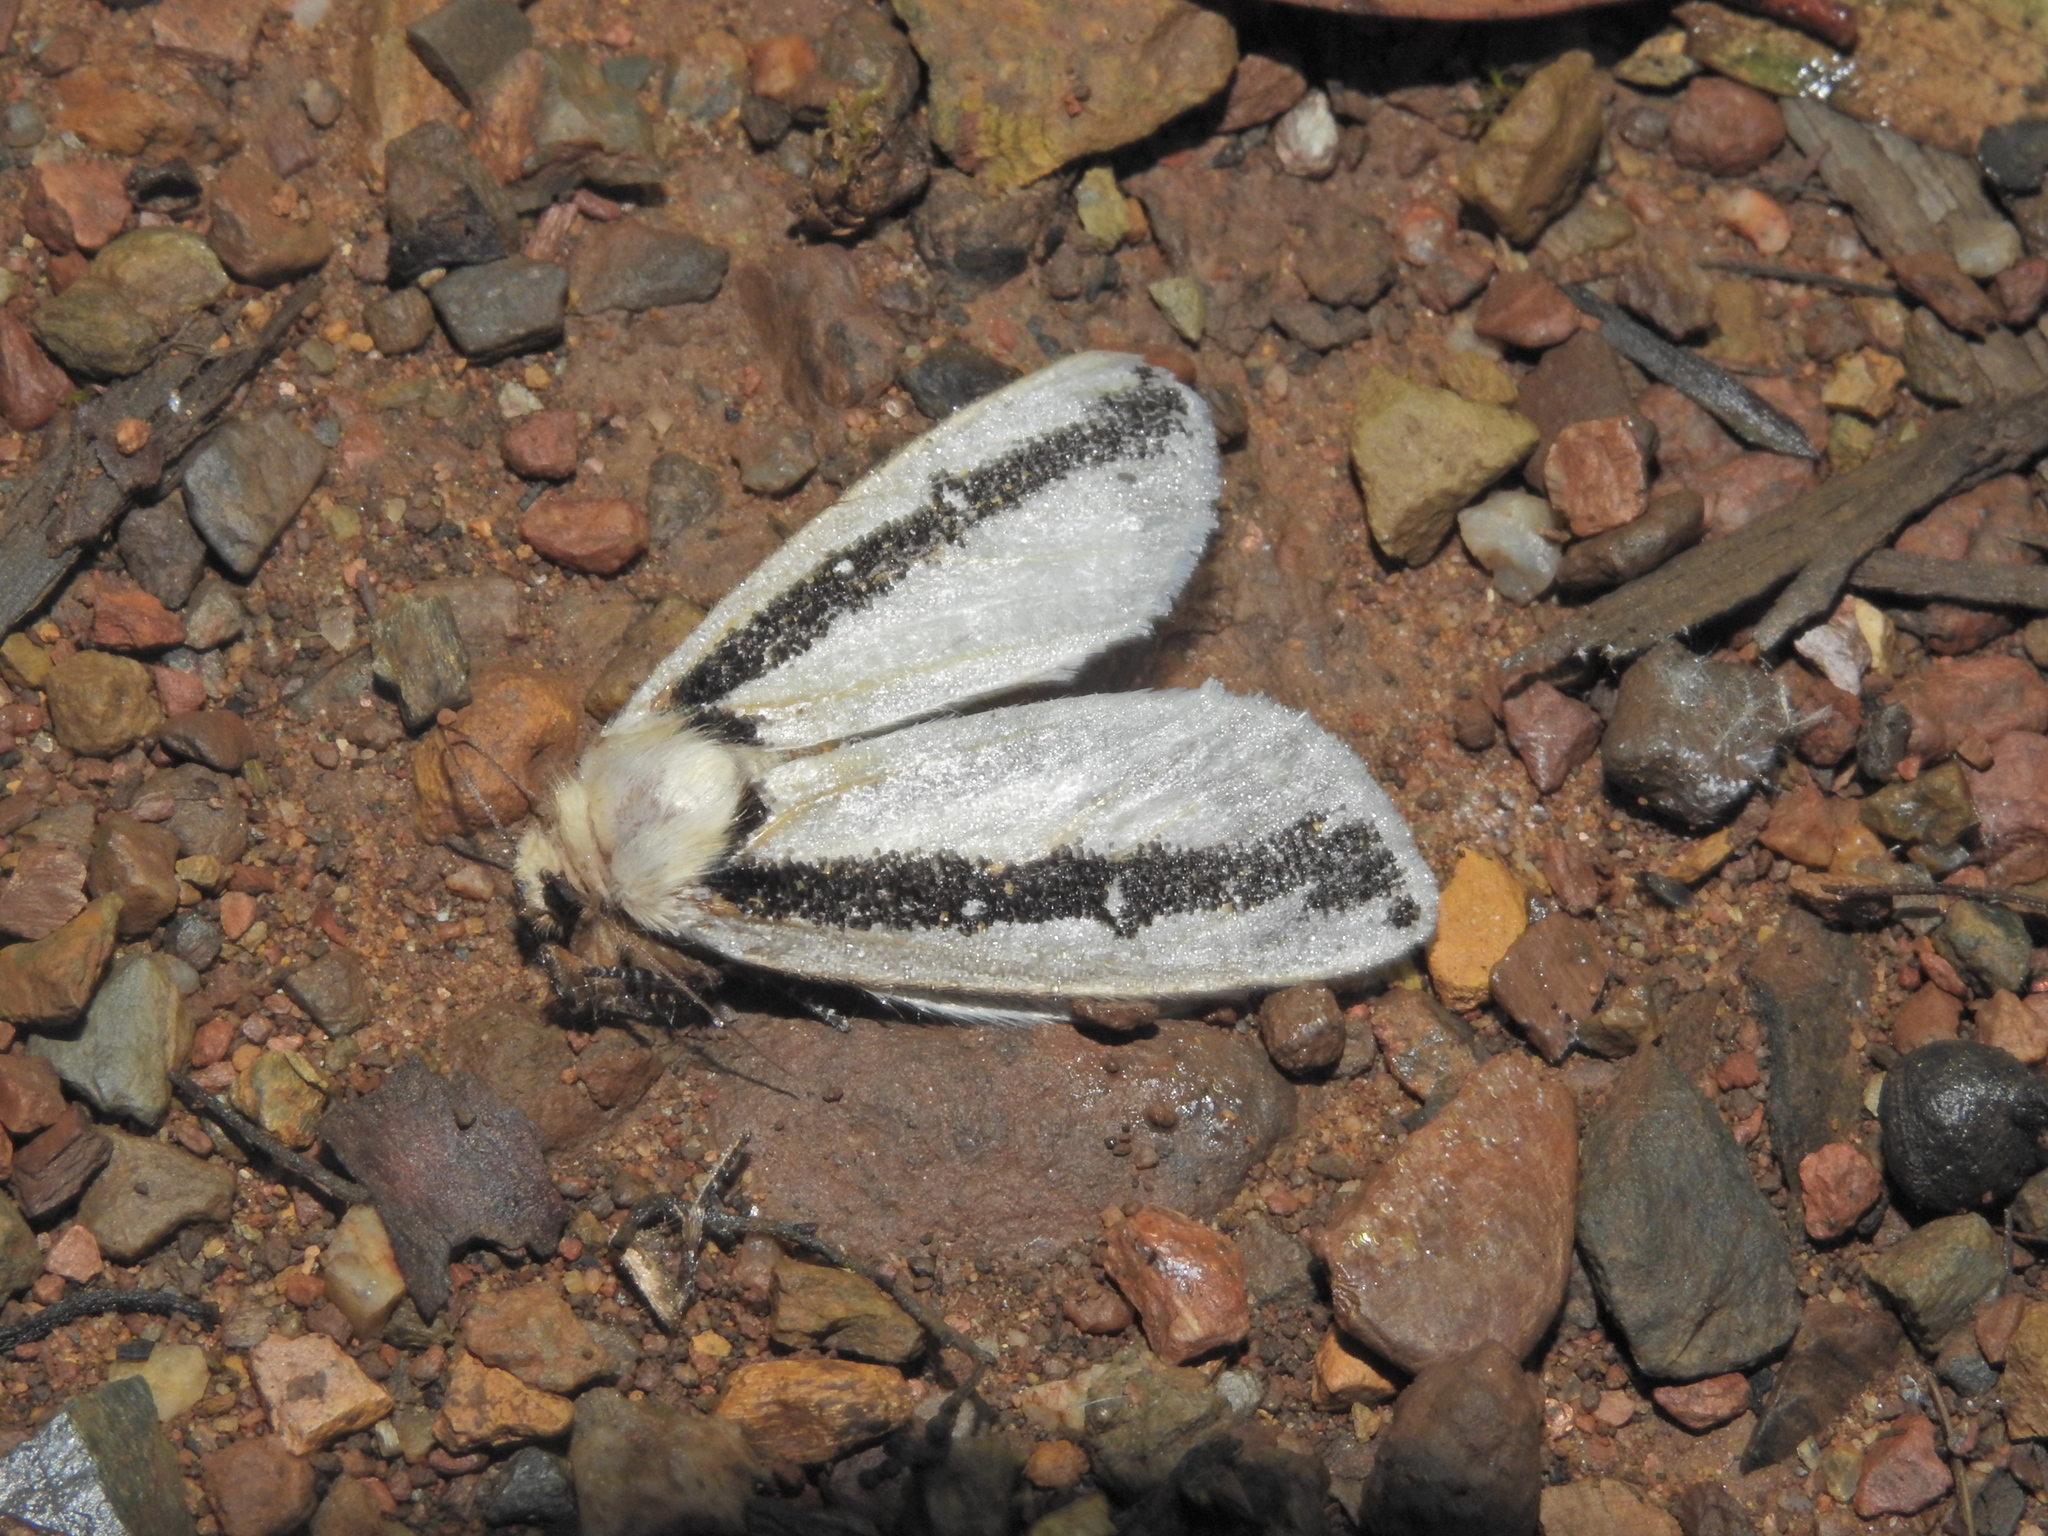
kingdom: Animalia
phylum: Arthropoda
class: Insecta
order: Lepidoptera
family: Oenosandridae
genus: Oenosandra
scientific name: Oenosandra boisduvalii
